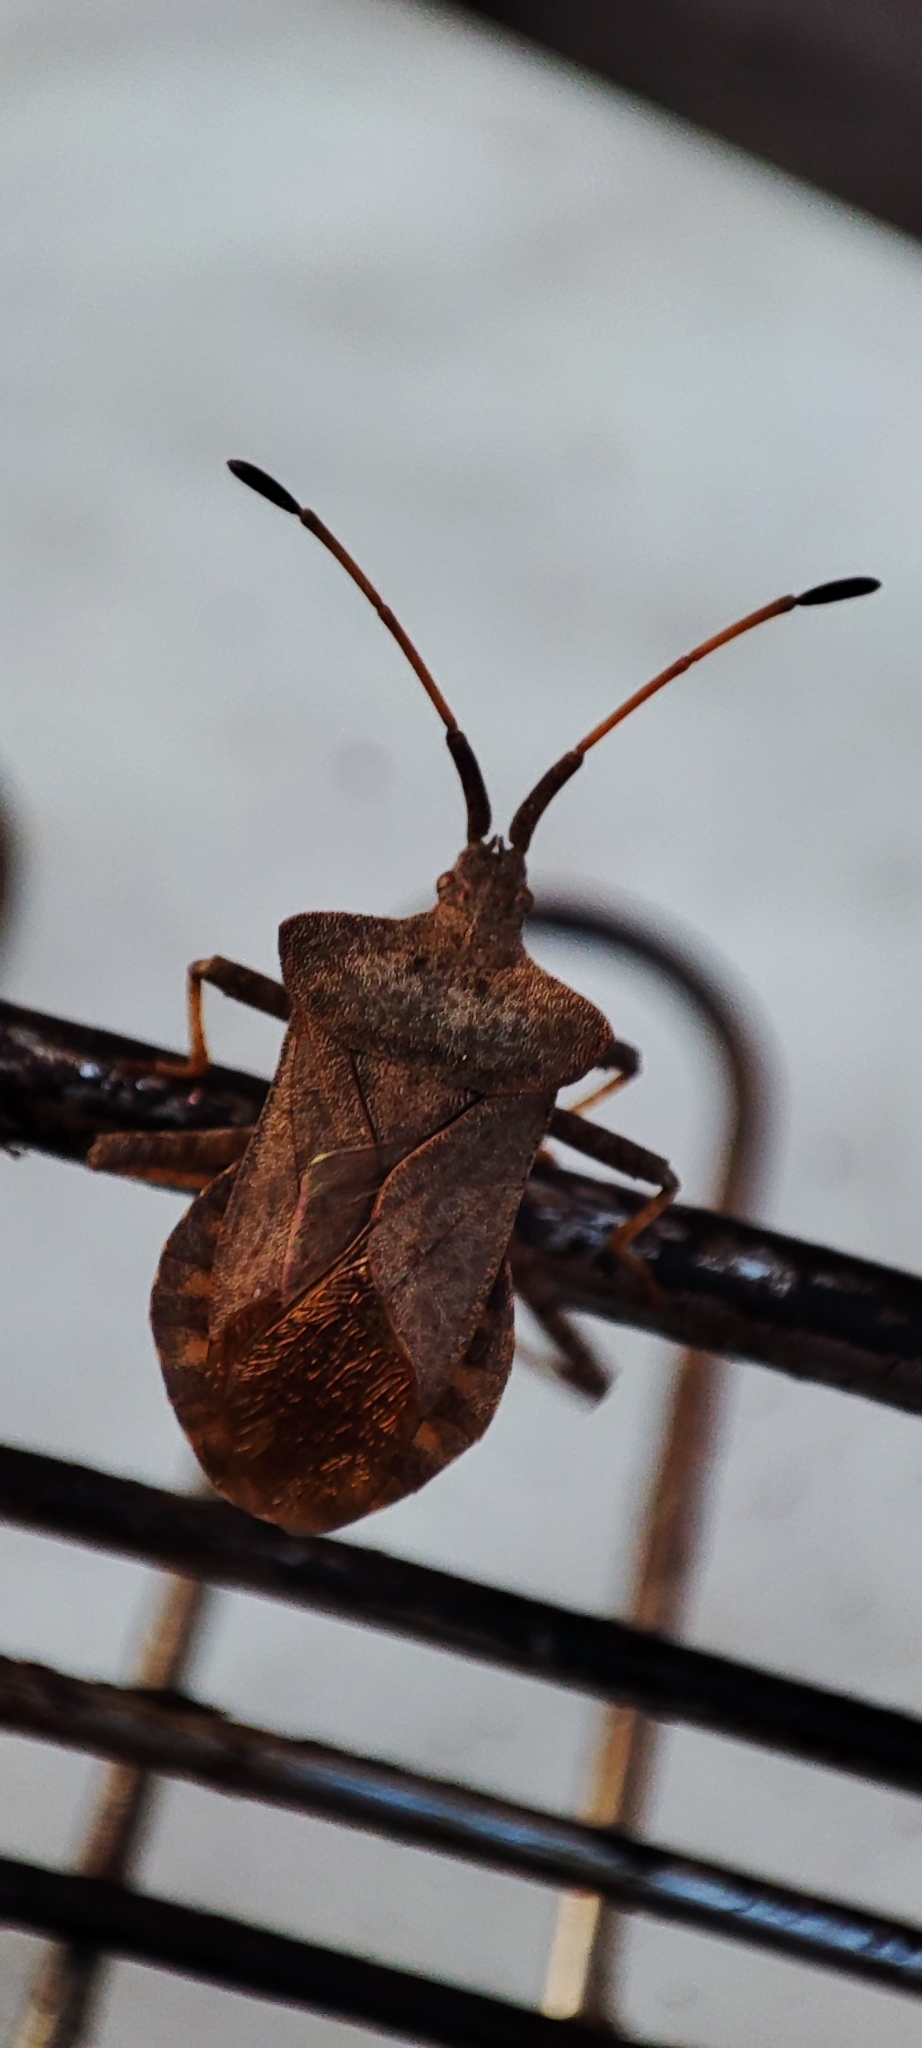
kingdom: Animalia
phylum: Arthropoda
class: Insecta
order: Hemiptera
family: Coreidae
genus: Coreus
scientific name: Coreus marginatus
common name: Dock bug
